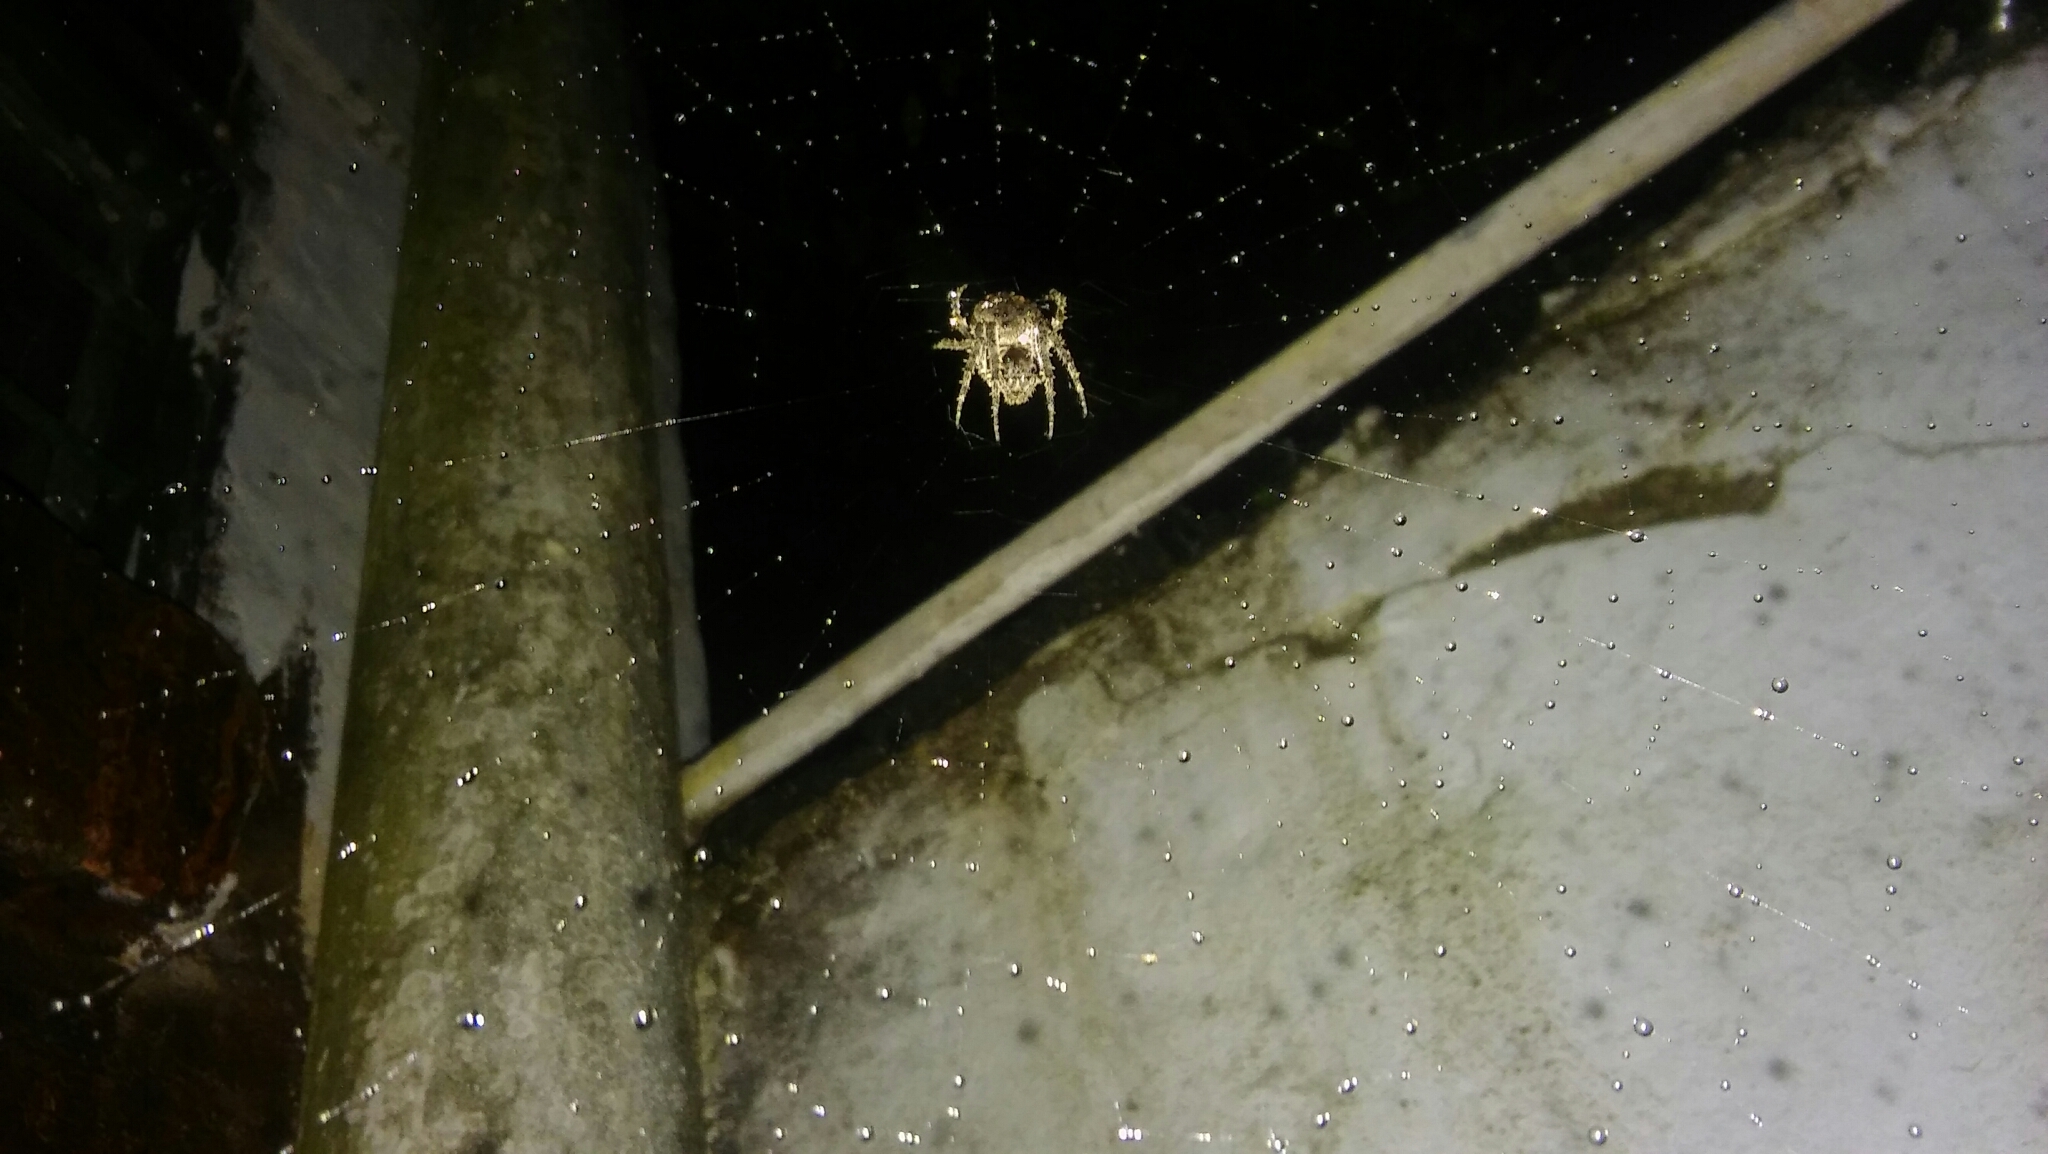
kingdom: Animalia
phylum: Arthropoda
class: Arachnida
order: Araneae
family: Araneidae
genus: Parawixia
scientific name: Parawixia audax
